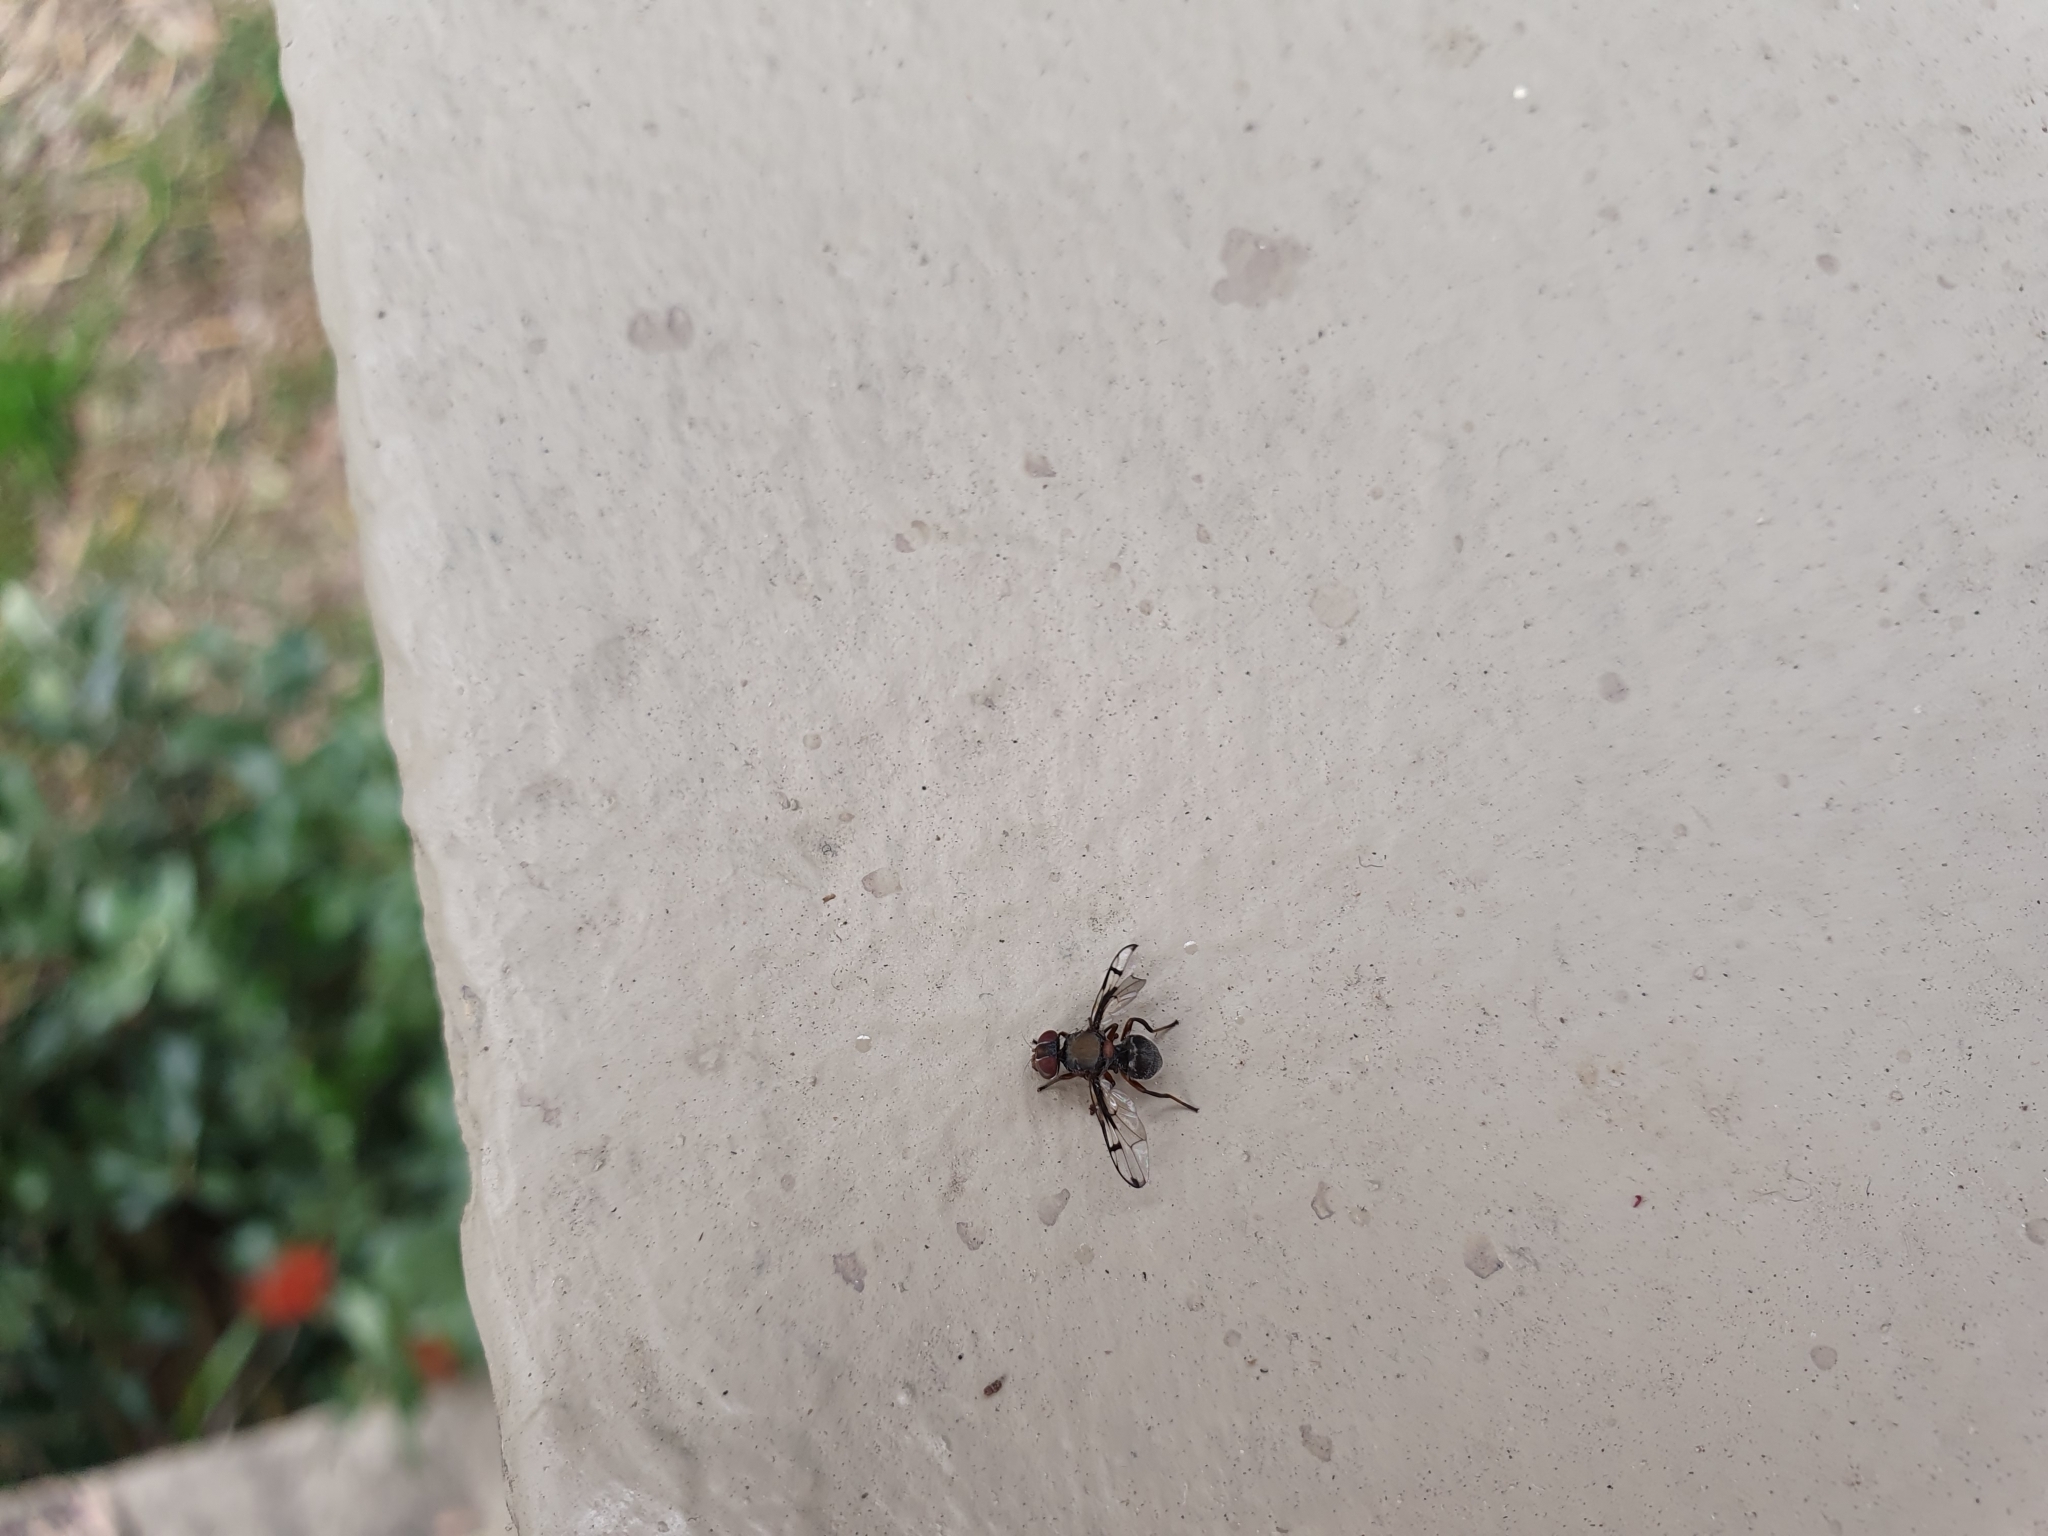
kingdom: Animalia
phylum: Arthropoda
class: Insecta
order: Diptera
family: Platystomatidae
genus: Pogonortalis
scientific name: Pogonortalis doclea
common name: Boatman fly
